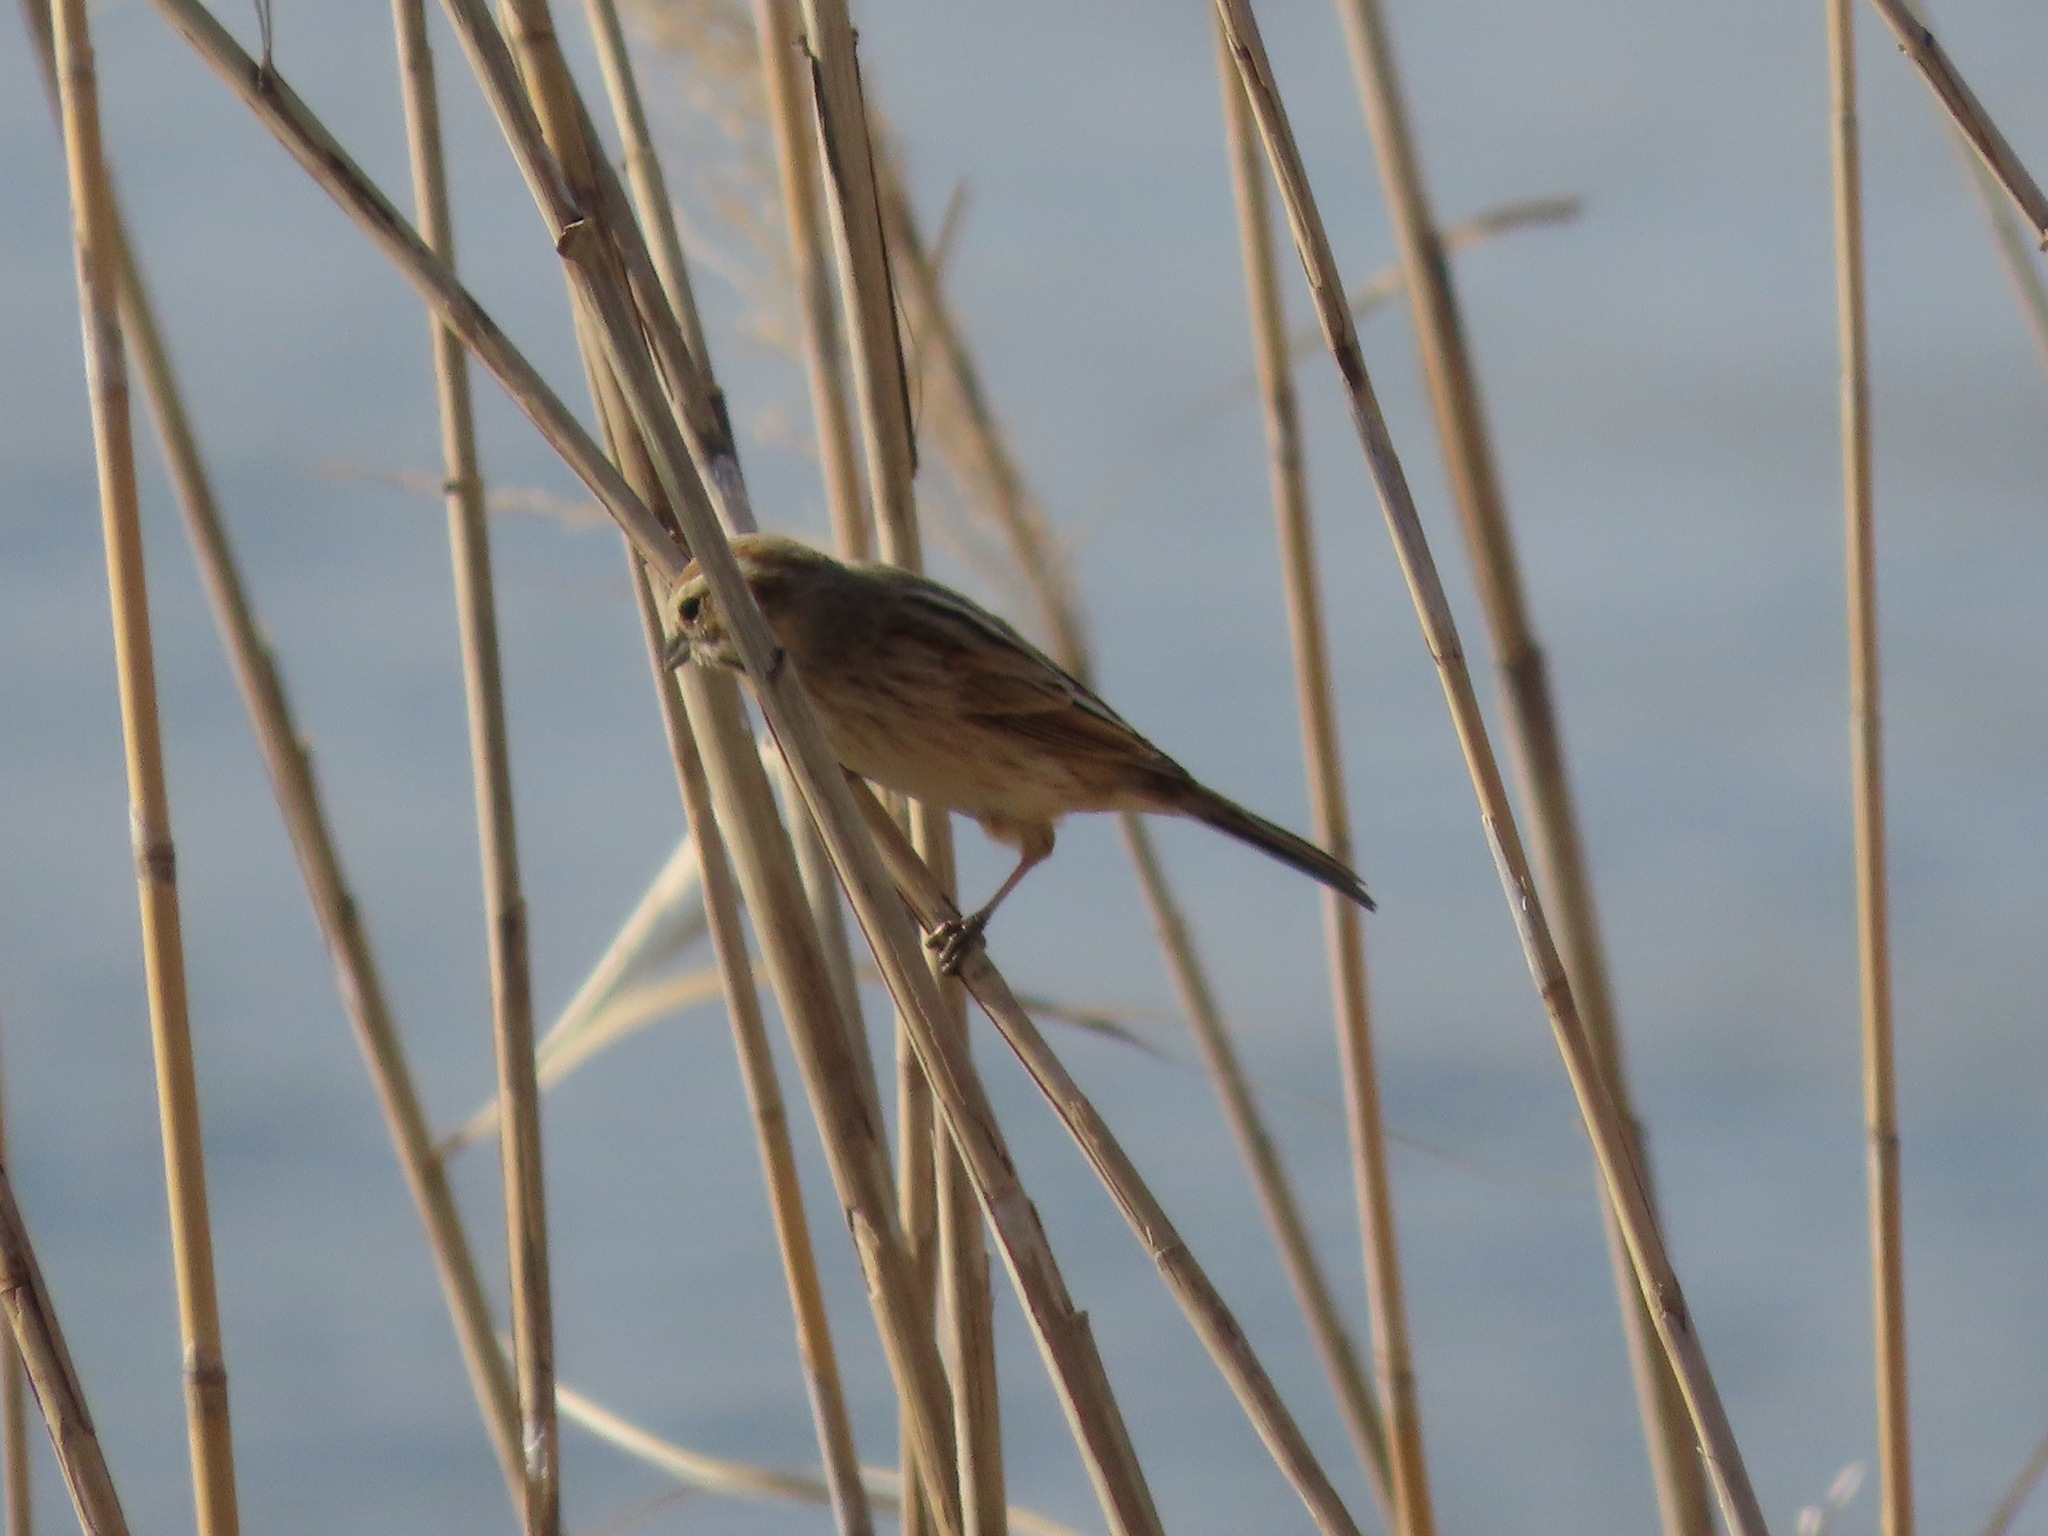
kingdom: Animalia
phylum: Chordata
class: Aves
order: Passeriformes
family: Emberizidae
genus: Emberiza
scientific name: Emberiza schoeniclus
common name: Reed bunting
